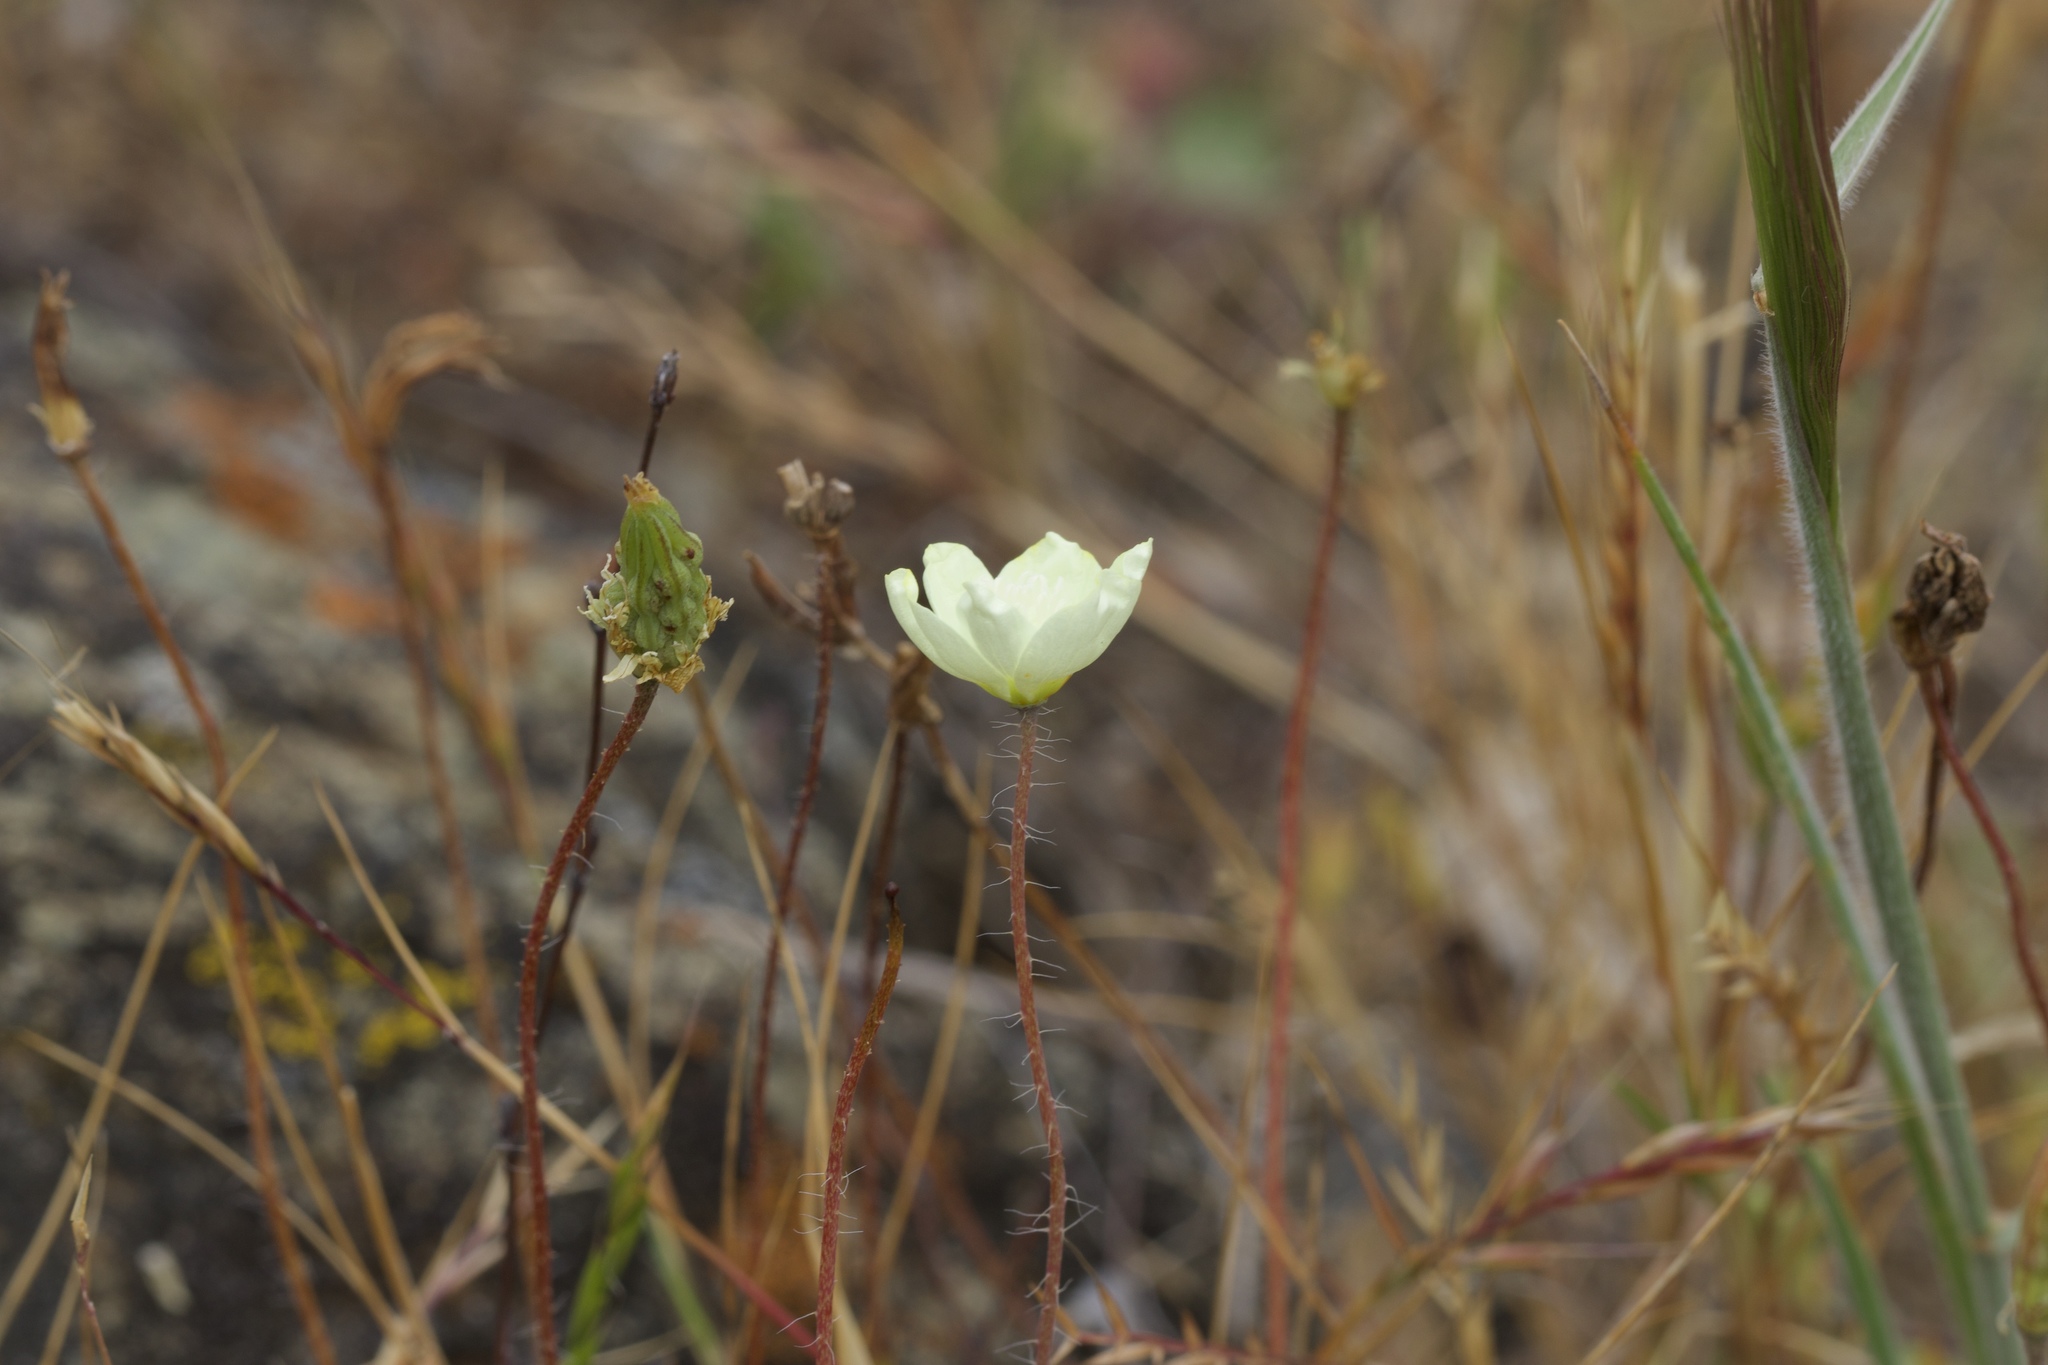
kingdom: Plantae
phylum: Tracheophyta
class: Magnoliopsida
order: Ranunculales
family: Papaveraceae
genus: Platystemon
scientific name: Platystemon californicus
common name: Cream-cups
